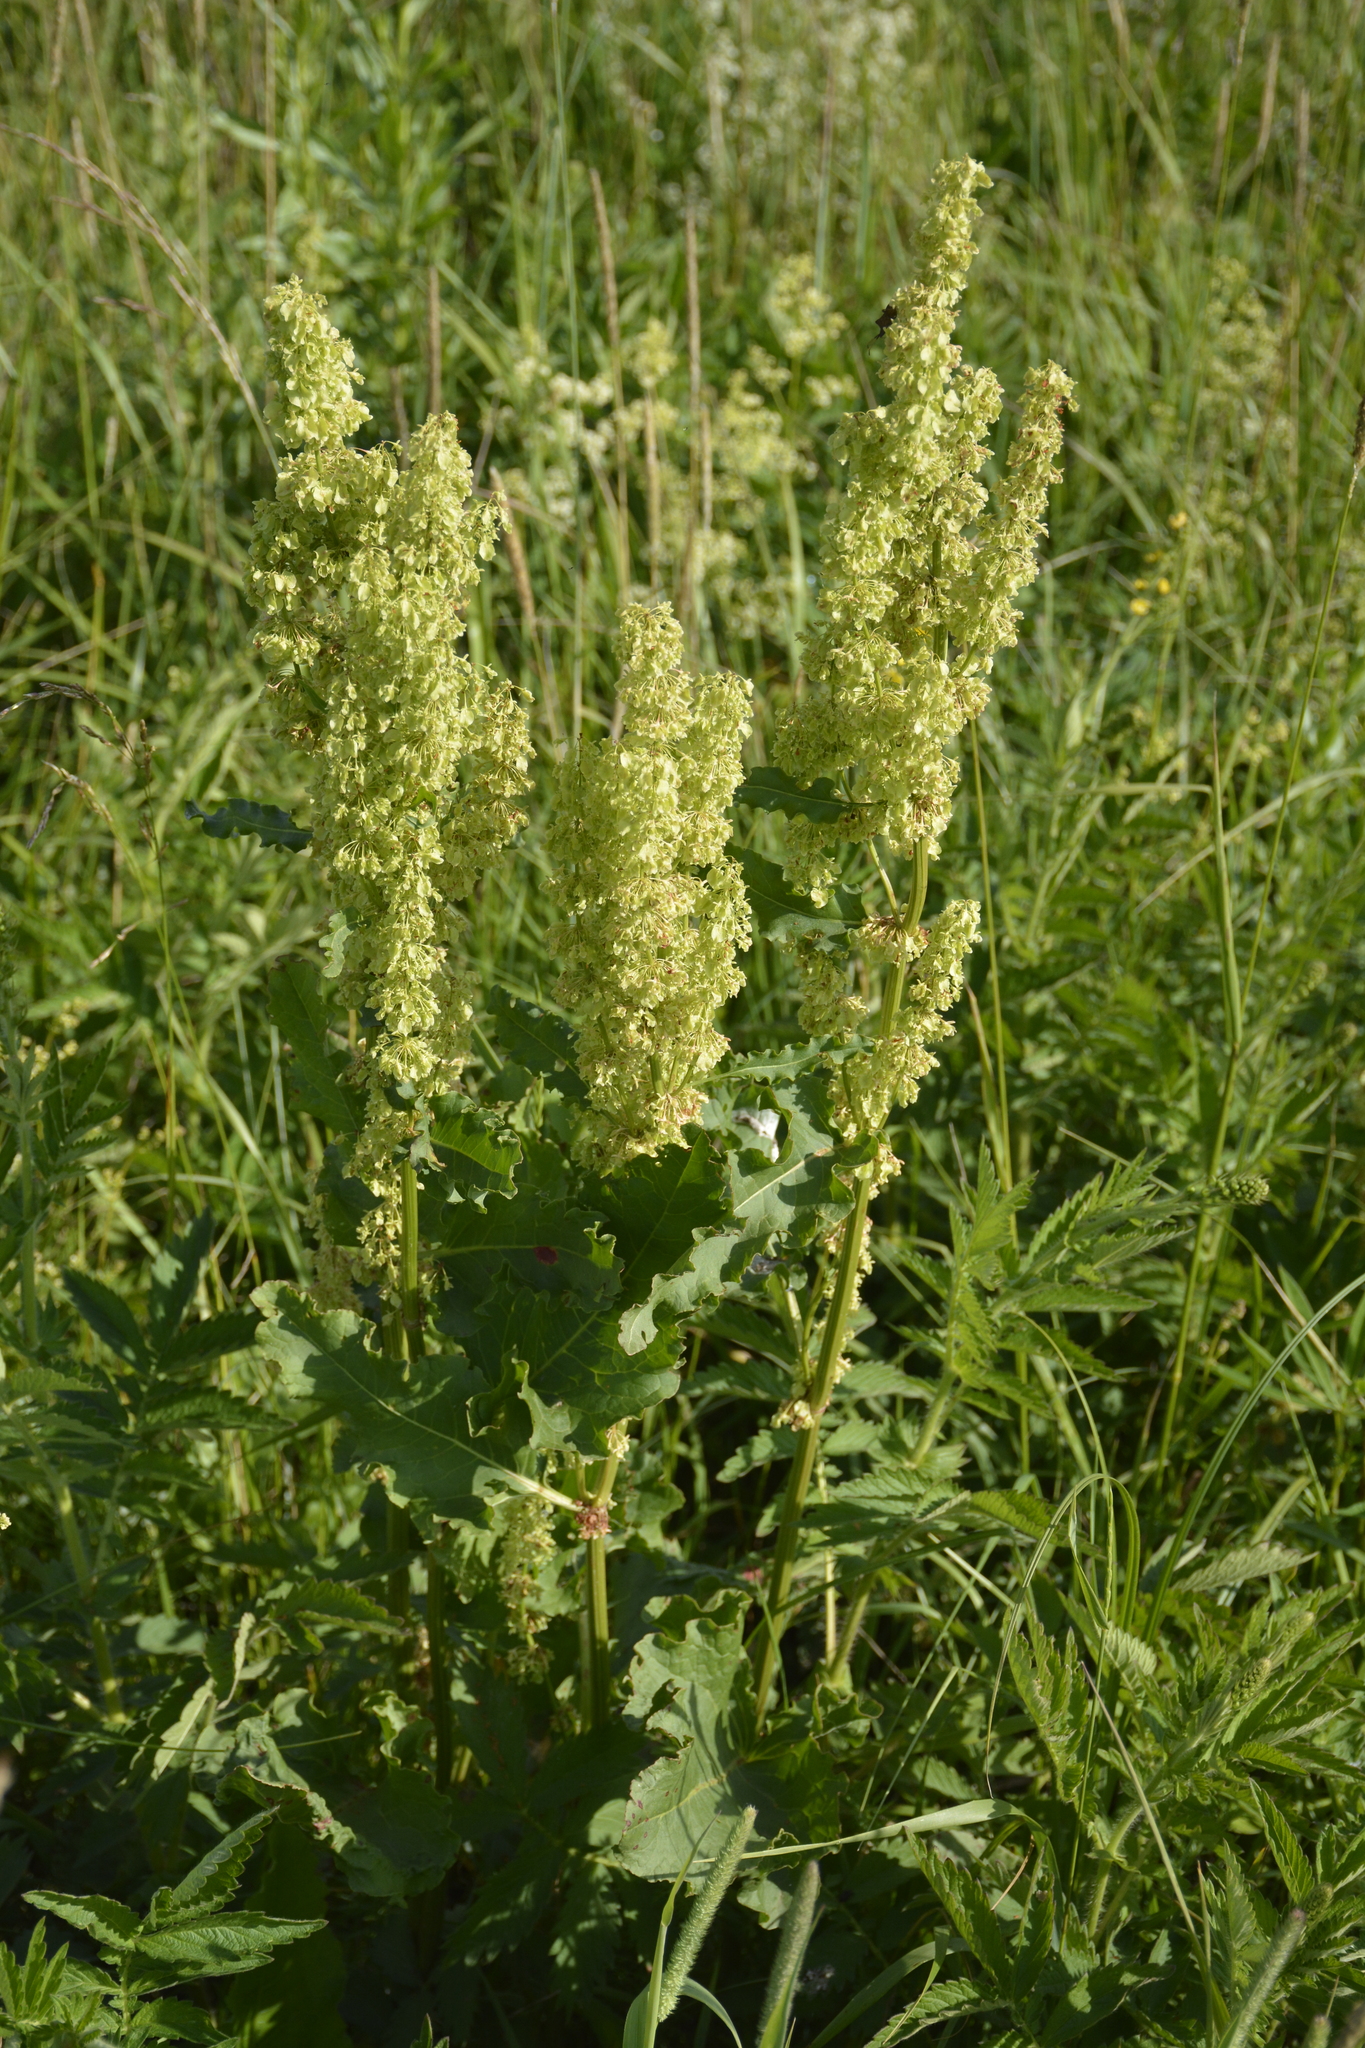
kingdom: Plantae
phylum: Tracheophyta
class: Magnoliopsida
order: Caryophyllales
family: Polygonaceae
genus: Rumex
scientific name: Rumex confertus
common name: Russian dock
